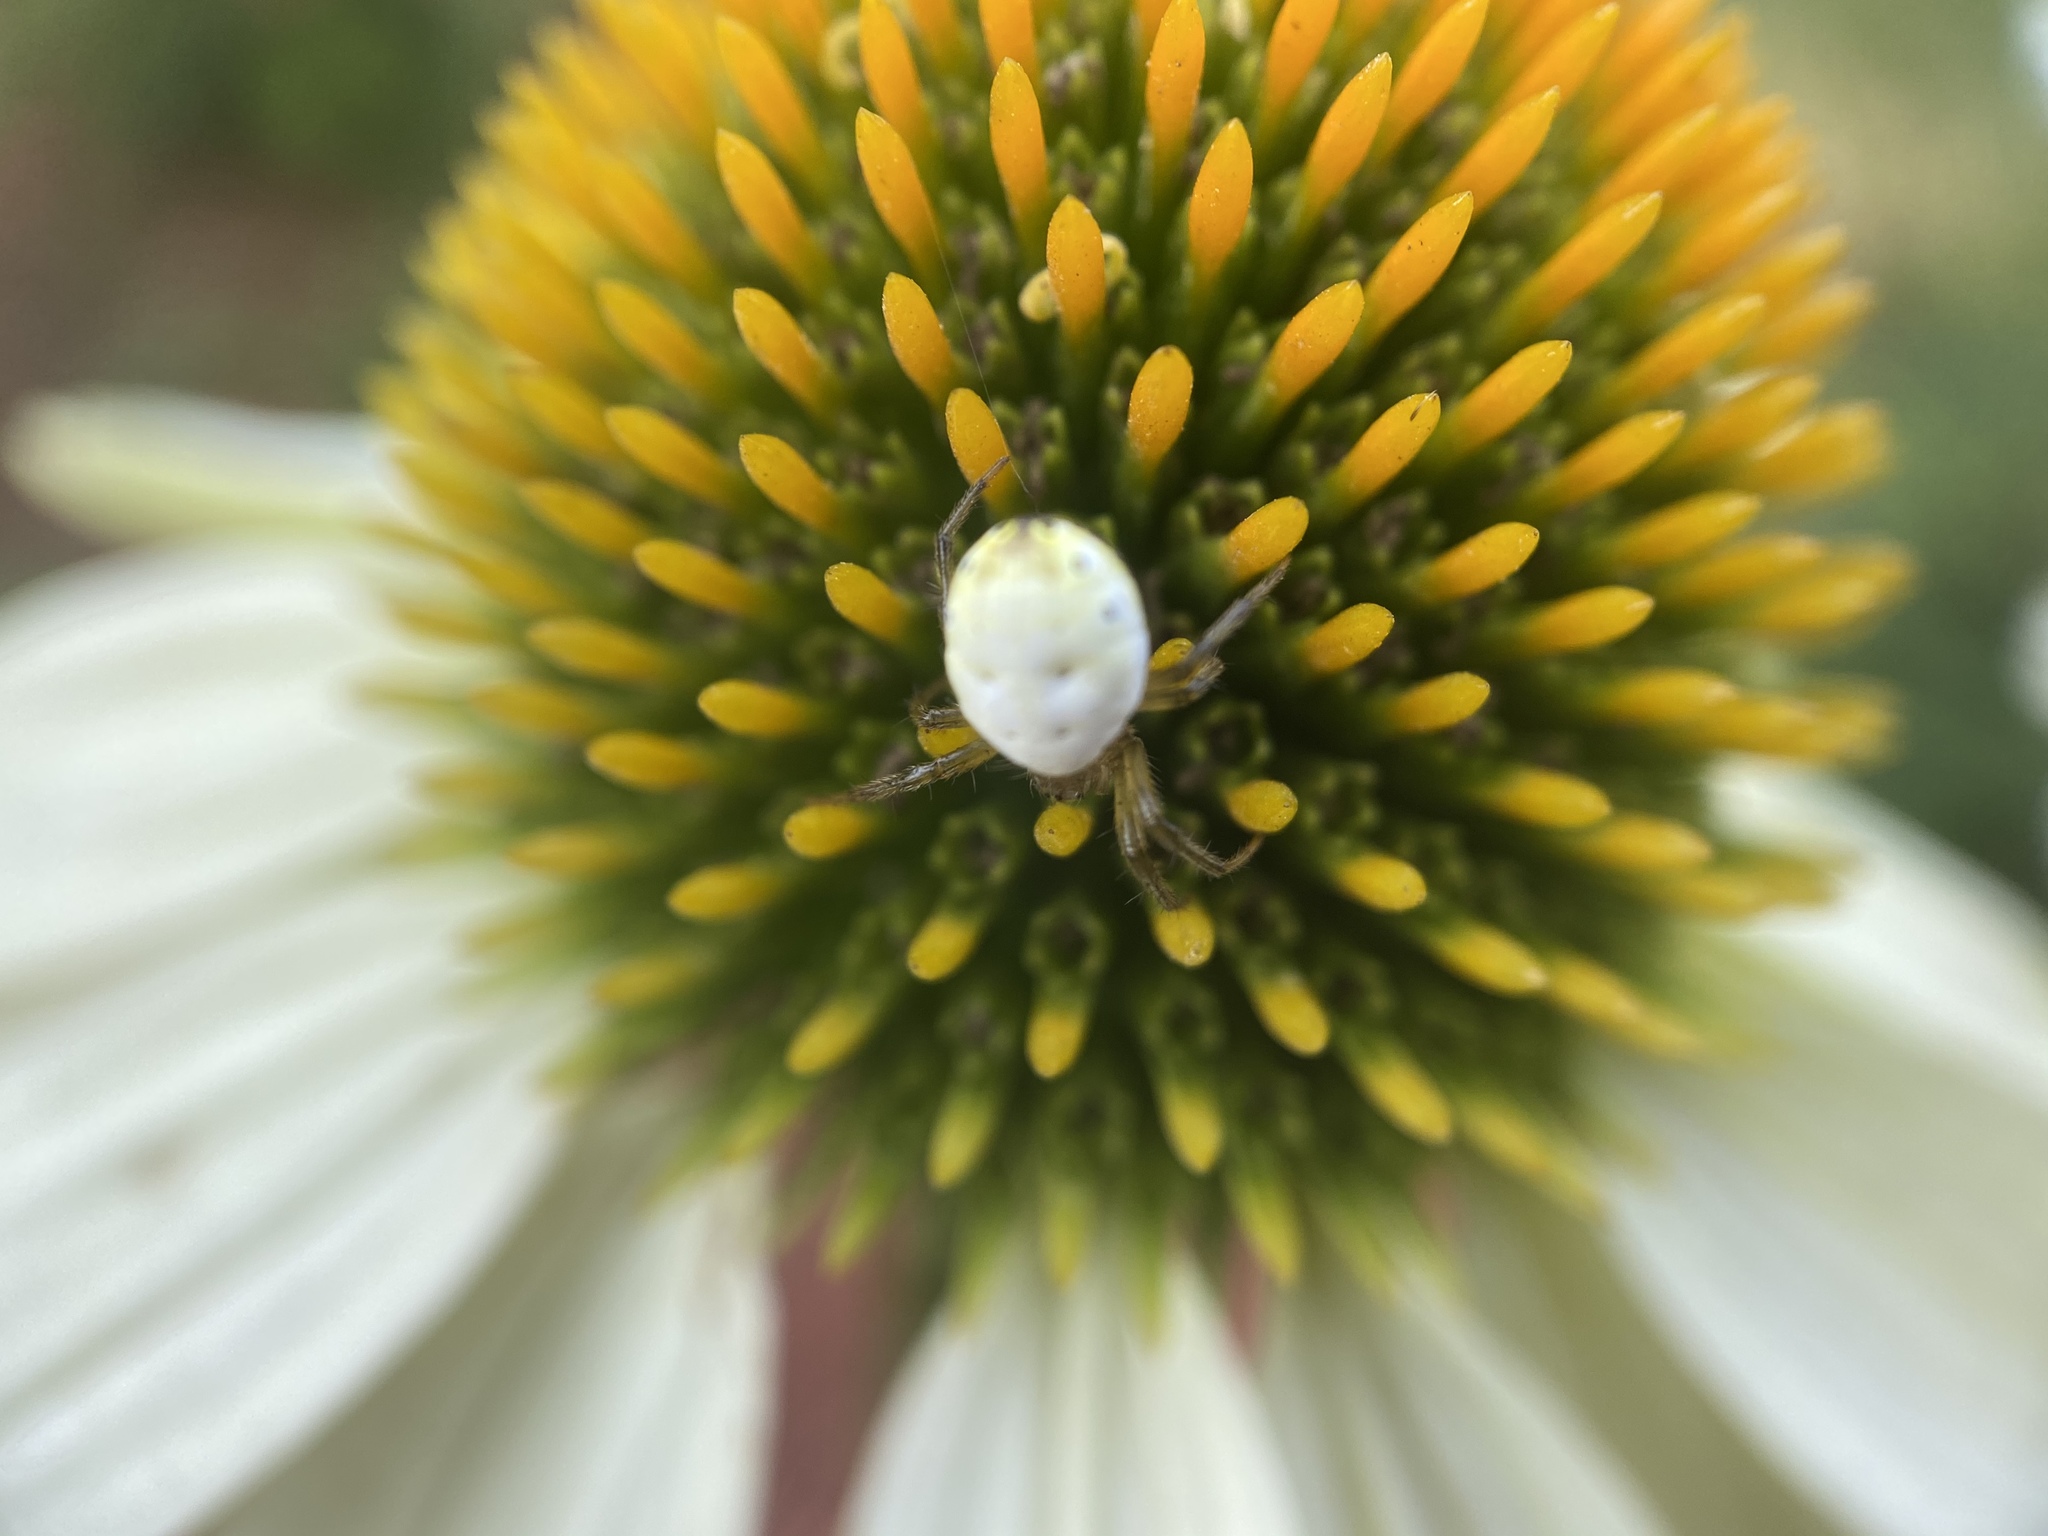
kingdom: Animalia
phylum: Arthropoda
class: Arachnida
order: Araneae
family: Araneidae
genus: Araniella
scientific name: Araniella displicata
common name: Sixspotted orb weaver
